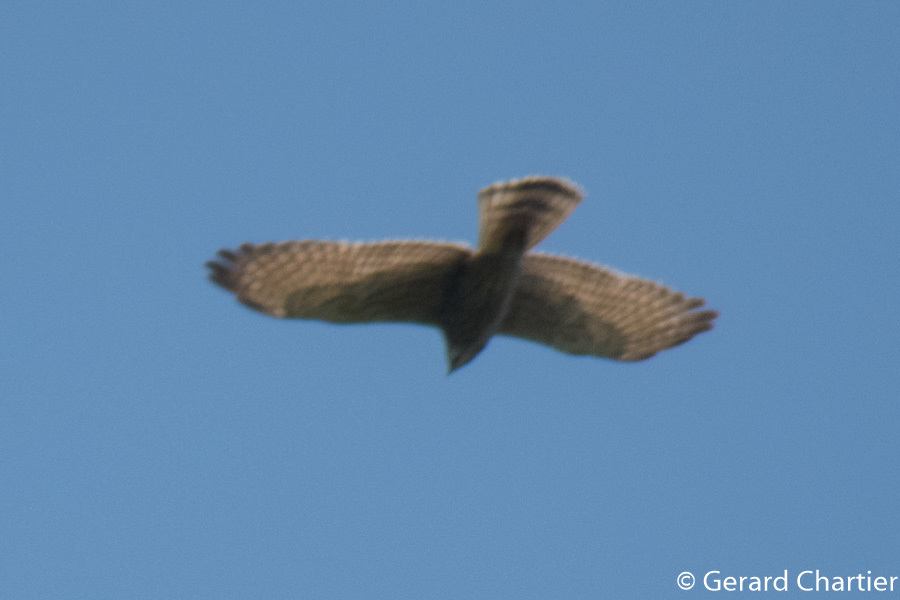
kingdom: Animalia
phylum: Chordata
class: Aves
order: Accipitriformes
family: Accipitridae
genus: Butastur
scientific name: Butastur indicus
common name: Grey-faced buzzard
